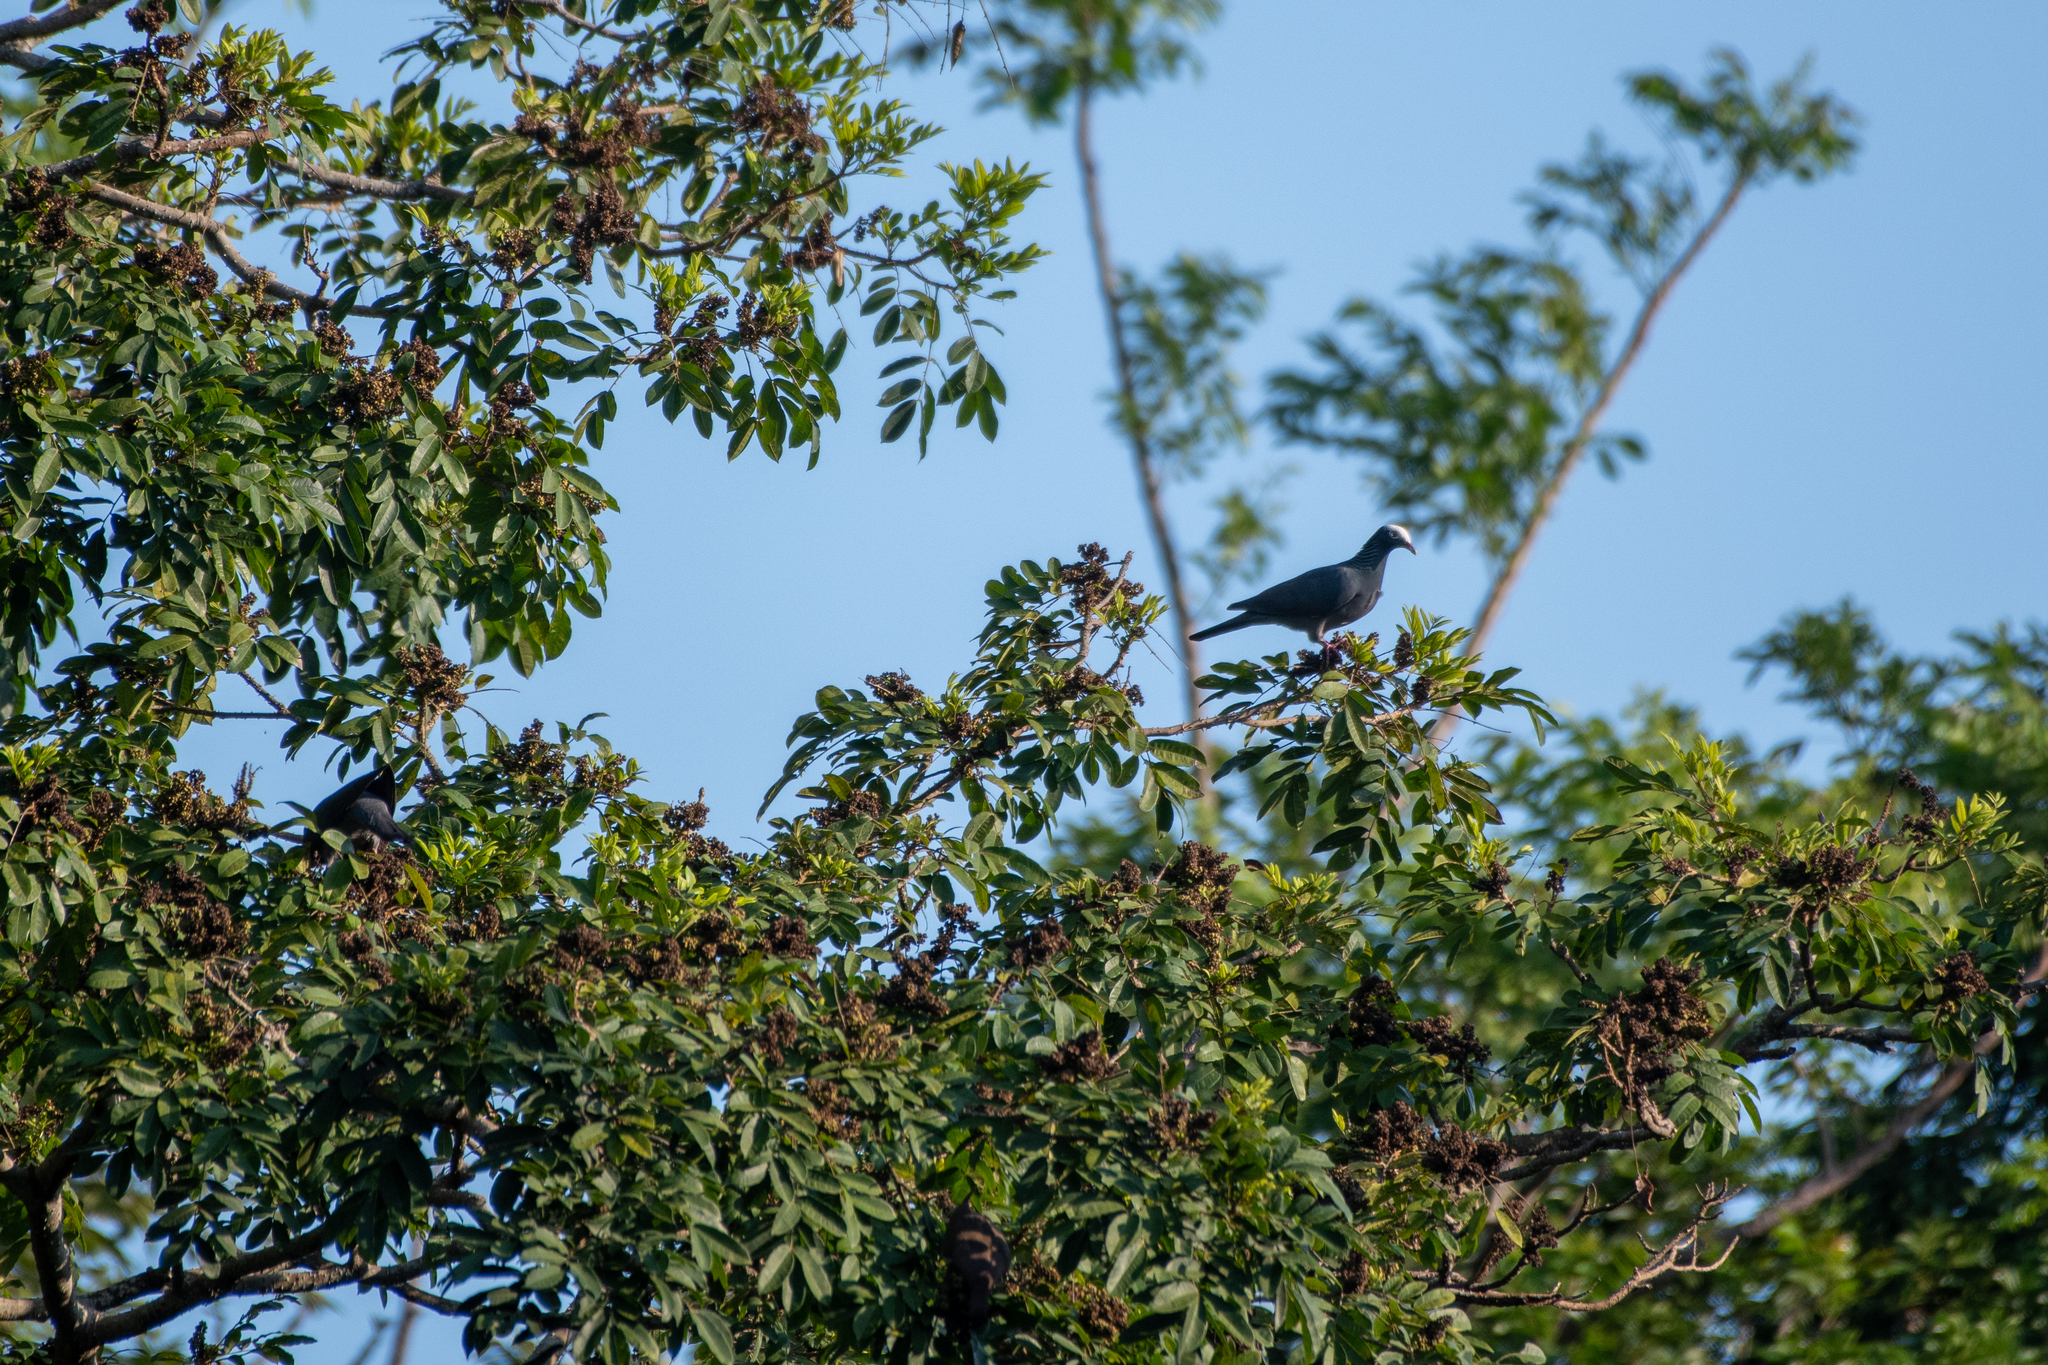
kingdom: Animalia
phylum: Chordata
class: Aves
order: Columbiformes
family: Columbidae
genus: Patagioenas
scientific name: Patagioenas leucocephala
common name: White-crowned pigeon
